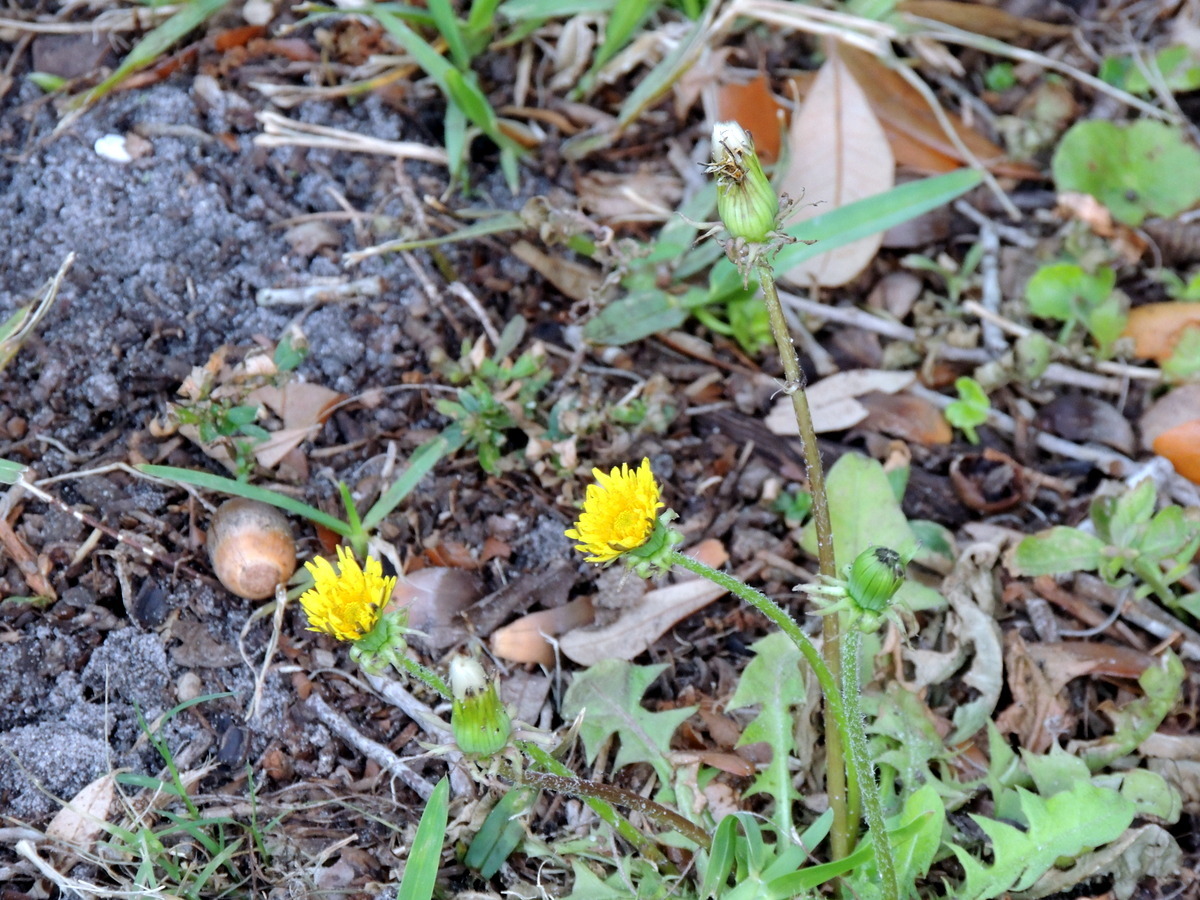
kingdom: Plantae
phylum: Tracheophyta
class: Magnoliopsida
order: Asterales
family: Asteraceae
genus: Taraxacum
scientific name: Taraxacum officinale
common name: Common dandelion
